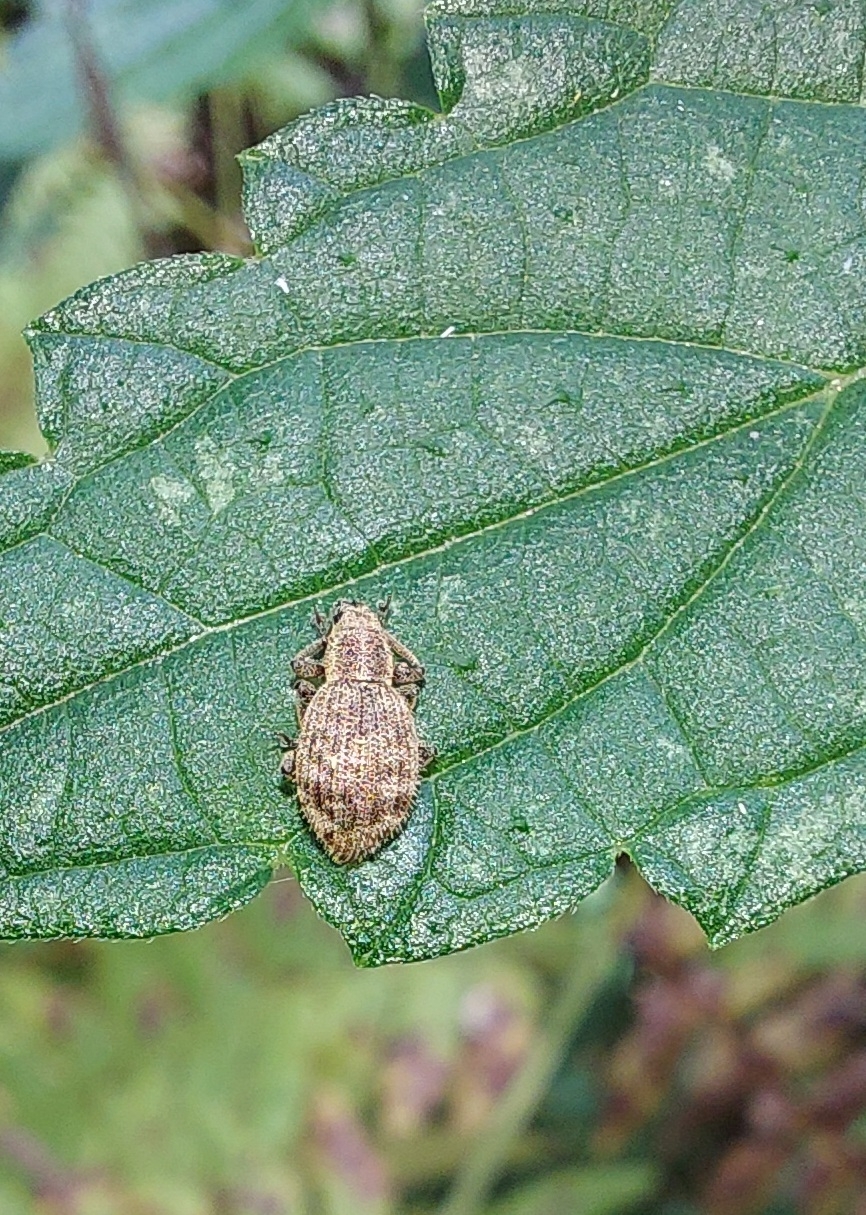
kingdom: Animalia
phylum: Arthropoda
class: Insecta
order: Coleoptera
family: Curculionidae
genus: Sciaphilus
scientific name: Sciaphilus asperatus
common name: Weevil
